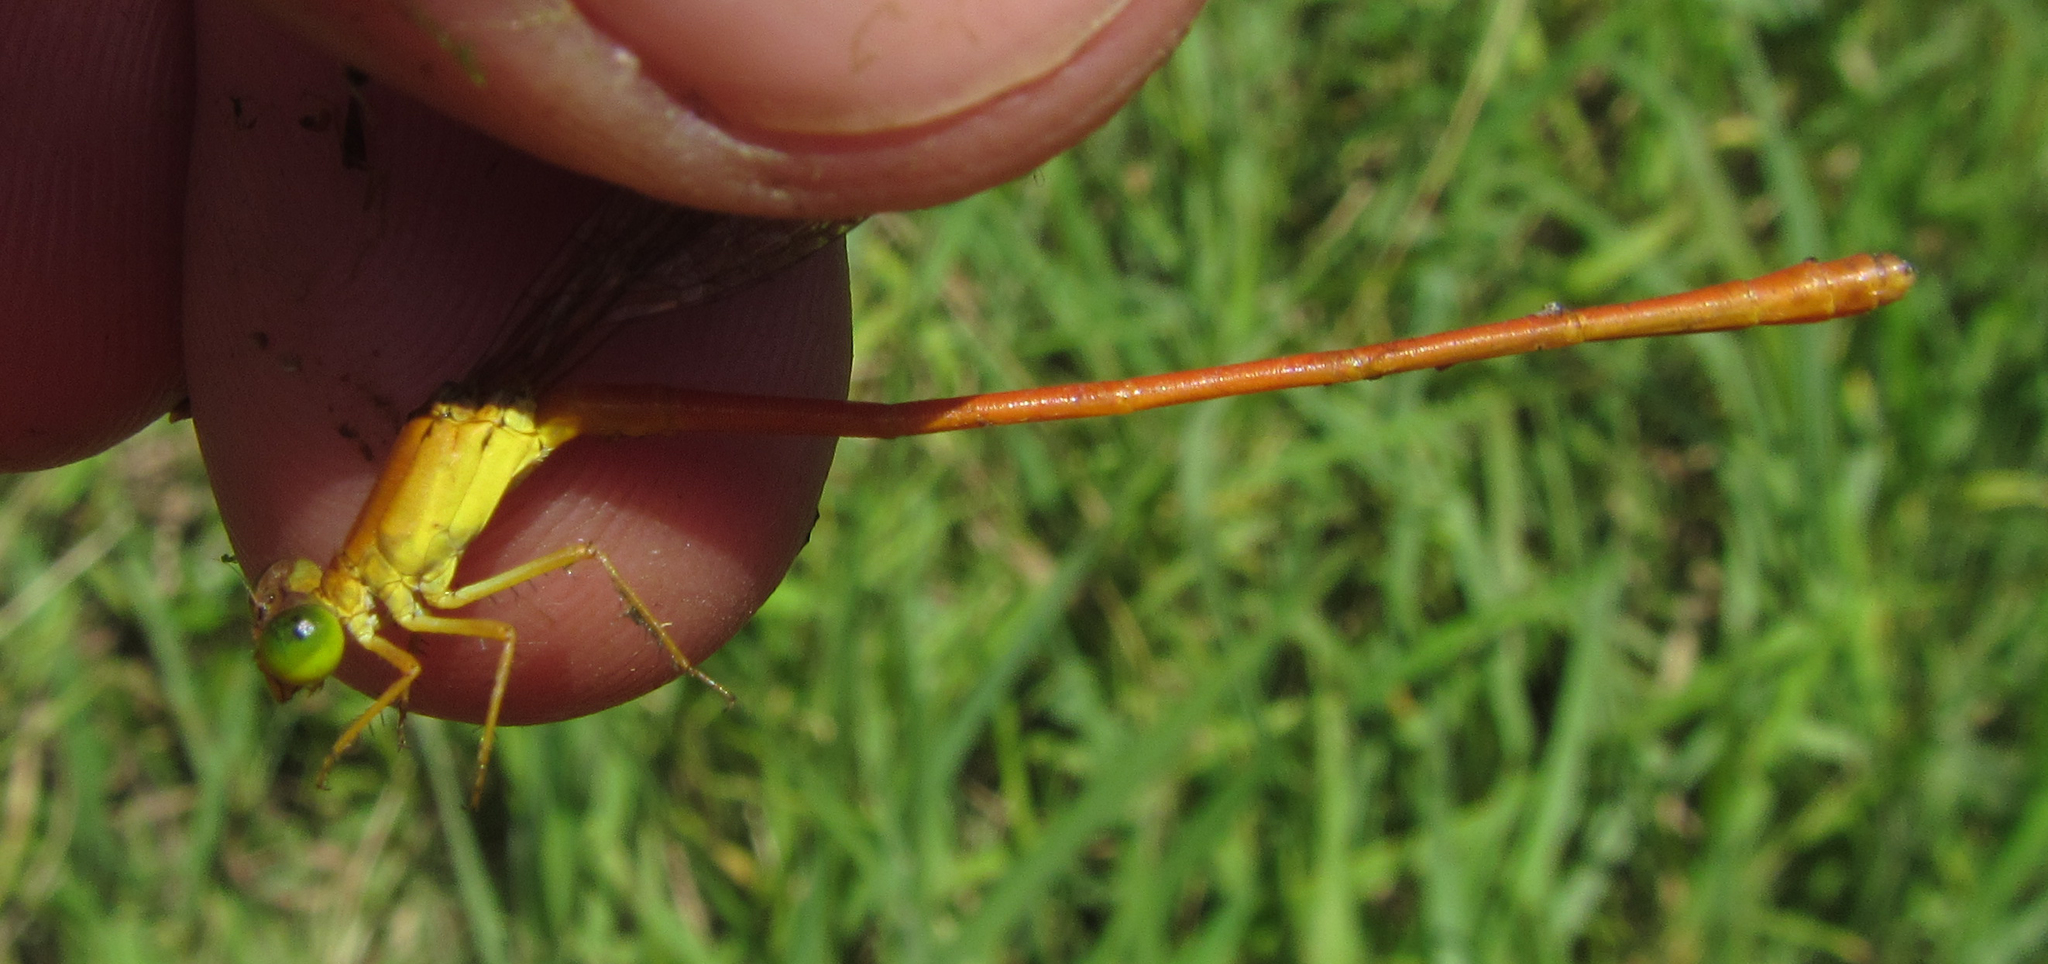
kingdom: Animalia
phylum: Arthropoda
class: Insecta
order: Odonata
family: Coenagrionidae
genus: Ceriagrion
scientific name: Ceriagrion glabrum
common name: Common pond damsel
